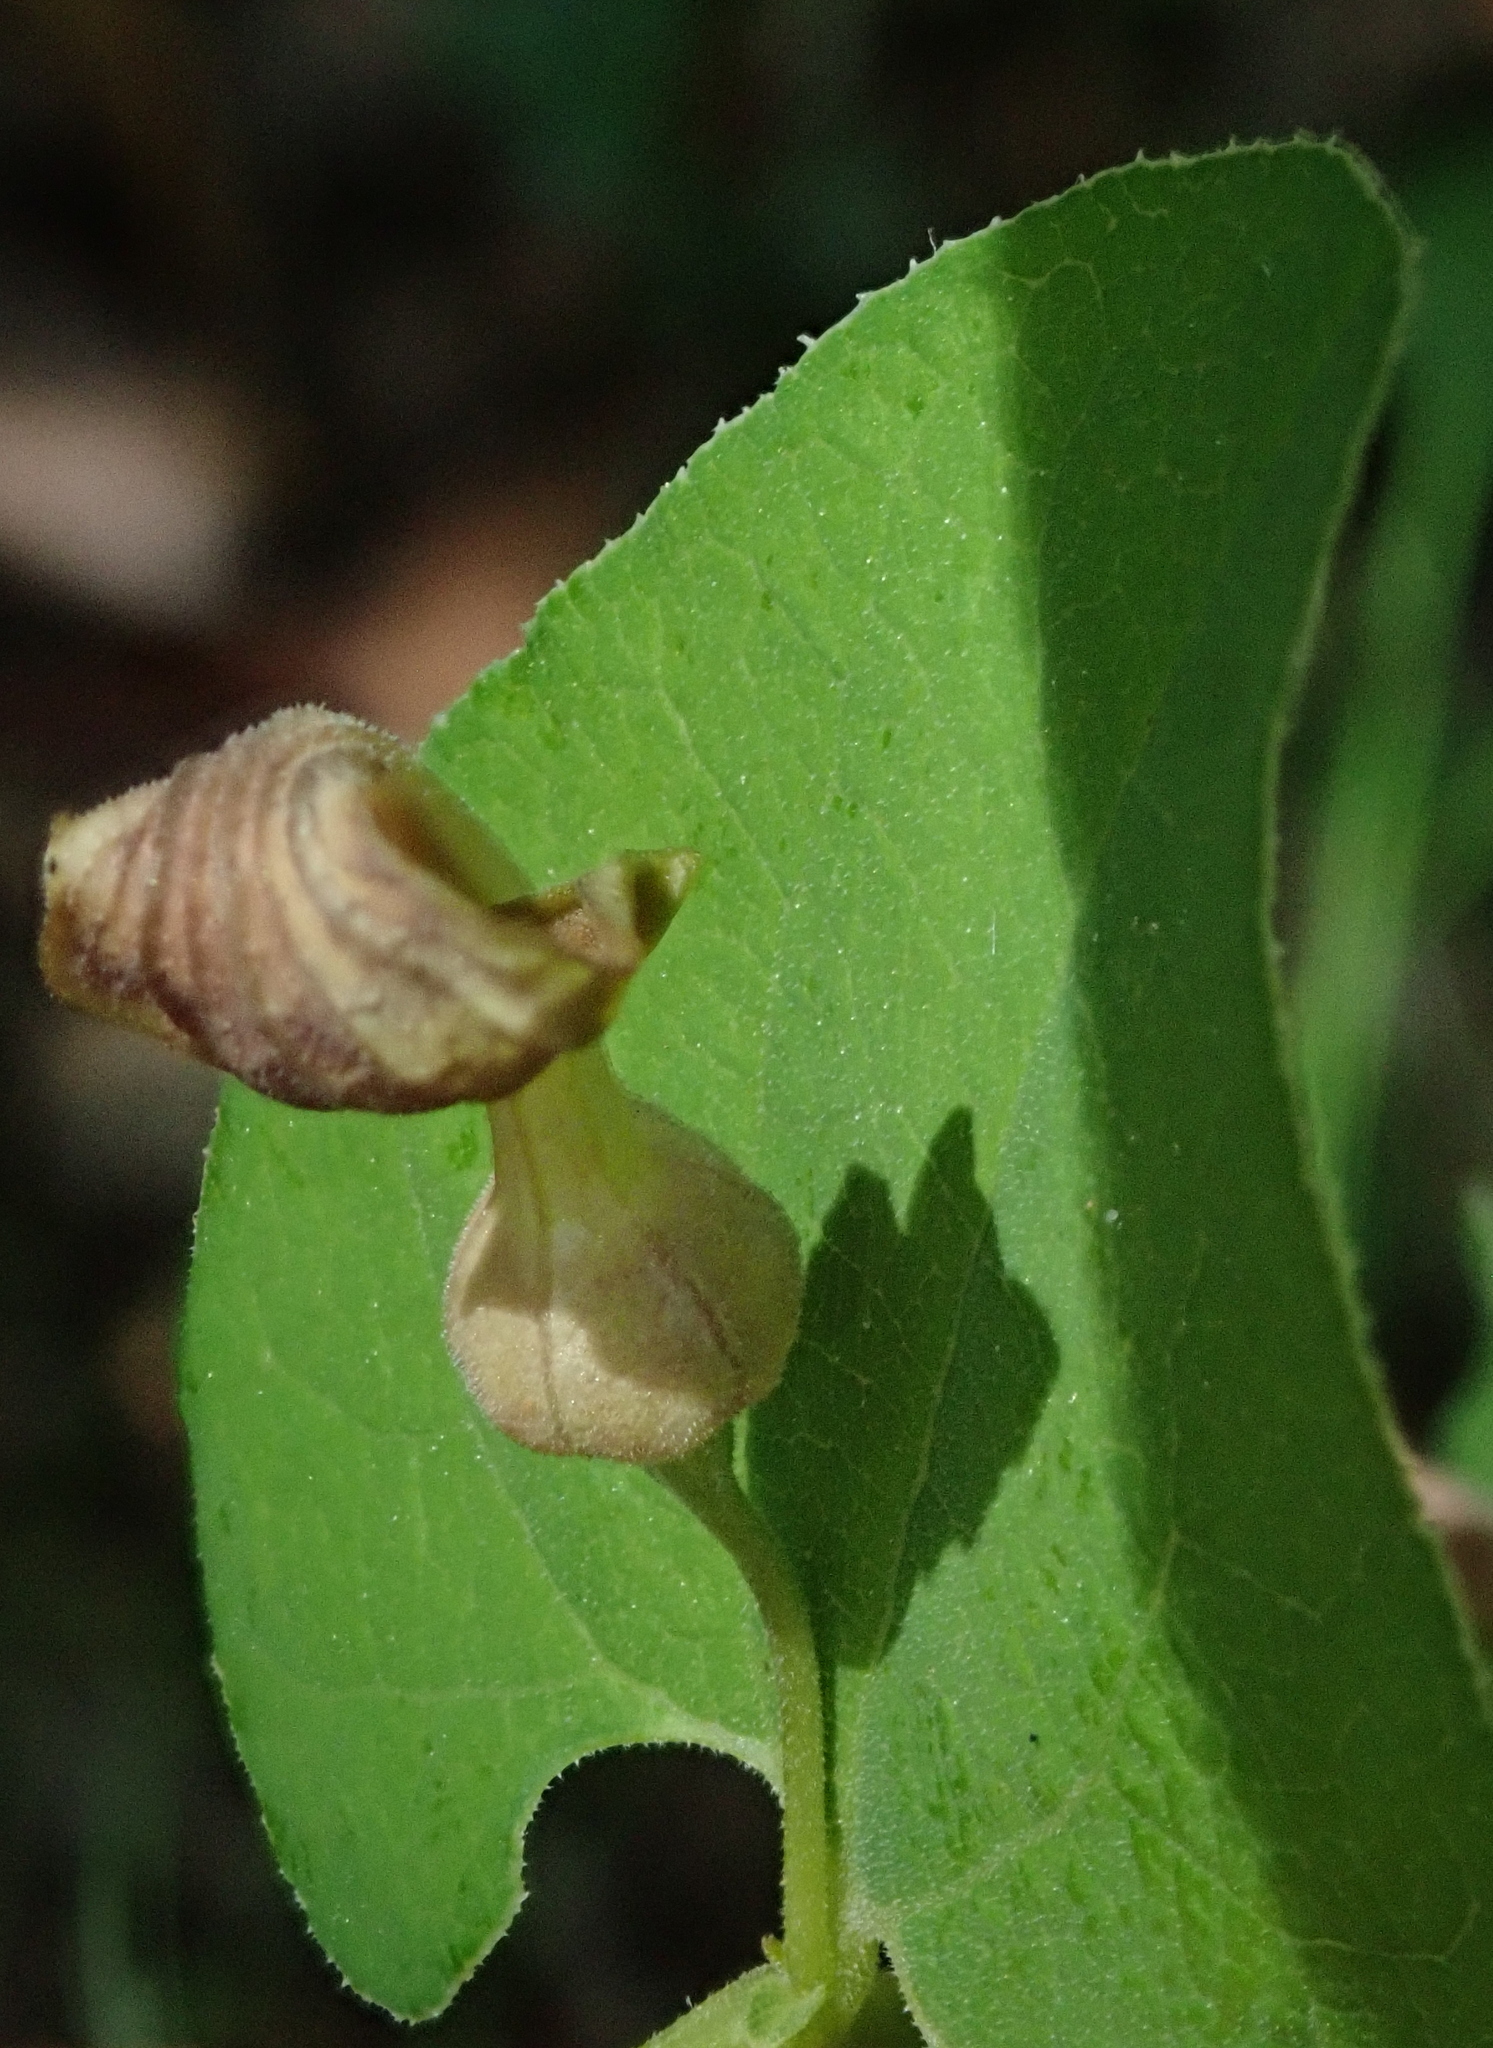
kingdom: Plantae
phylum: Tracheophyta
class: Magnoliopsida
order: Piperales
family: Aristolochiaceae
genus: Aristolochia
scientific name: Aristolochia rotunda
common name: Smearwort
